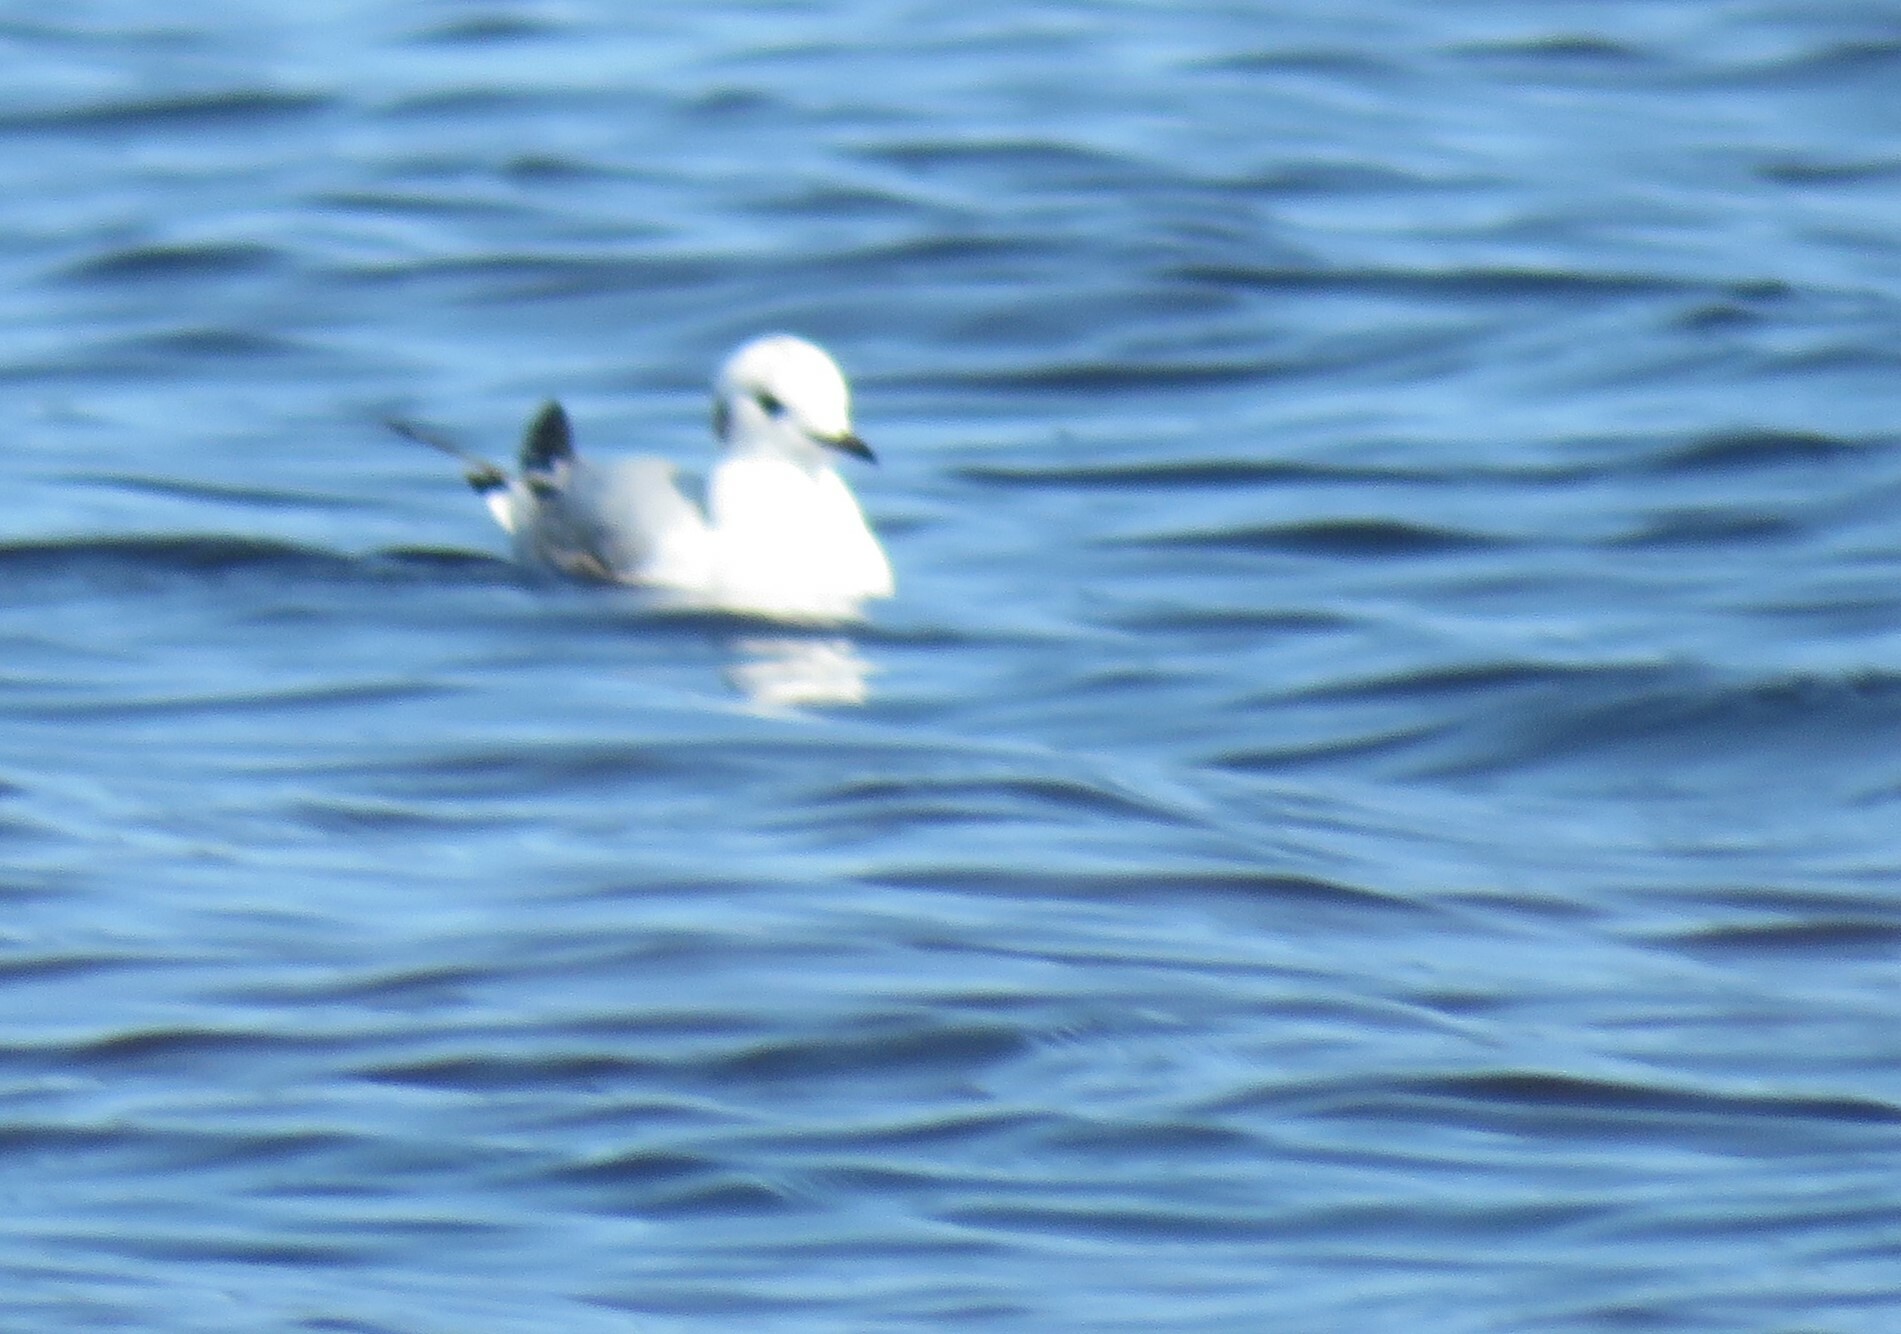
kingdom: Animalia
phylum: Chordata
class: Aves
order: Charadriiformes
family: Laridae
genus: Chroicocephalus
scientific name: Chroicocephalus philadelphia
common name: Bonaparte's gull
